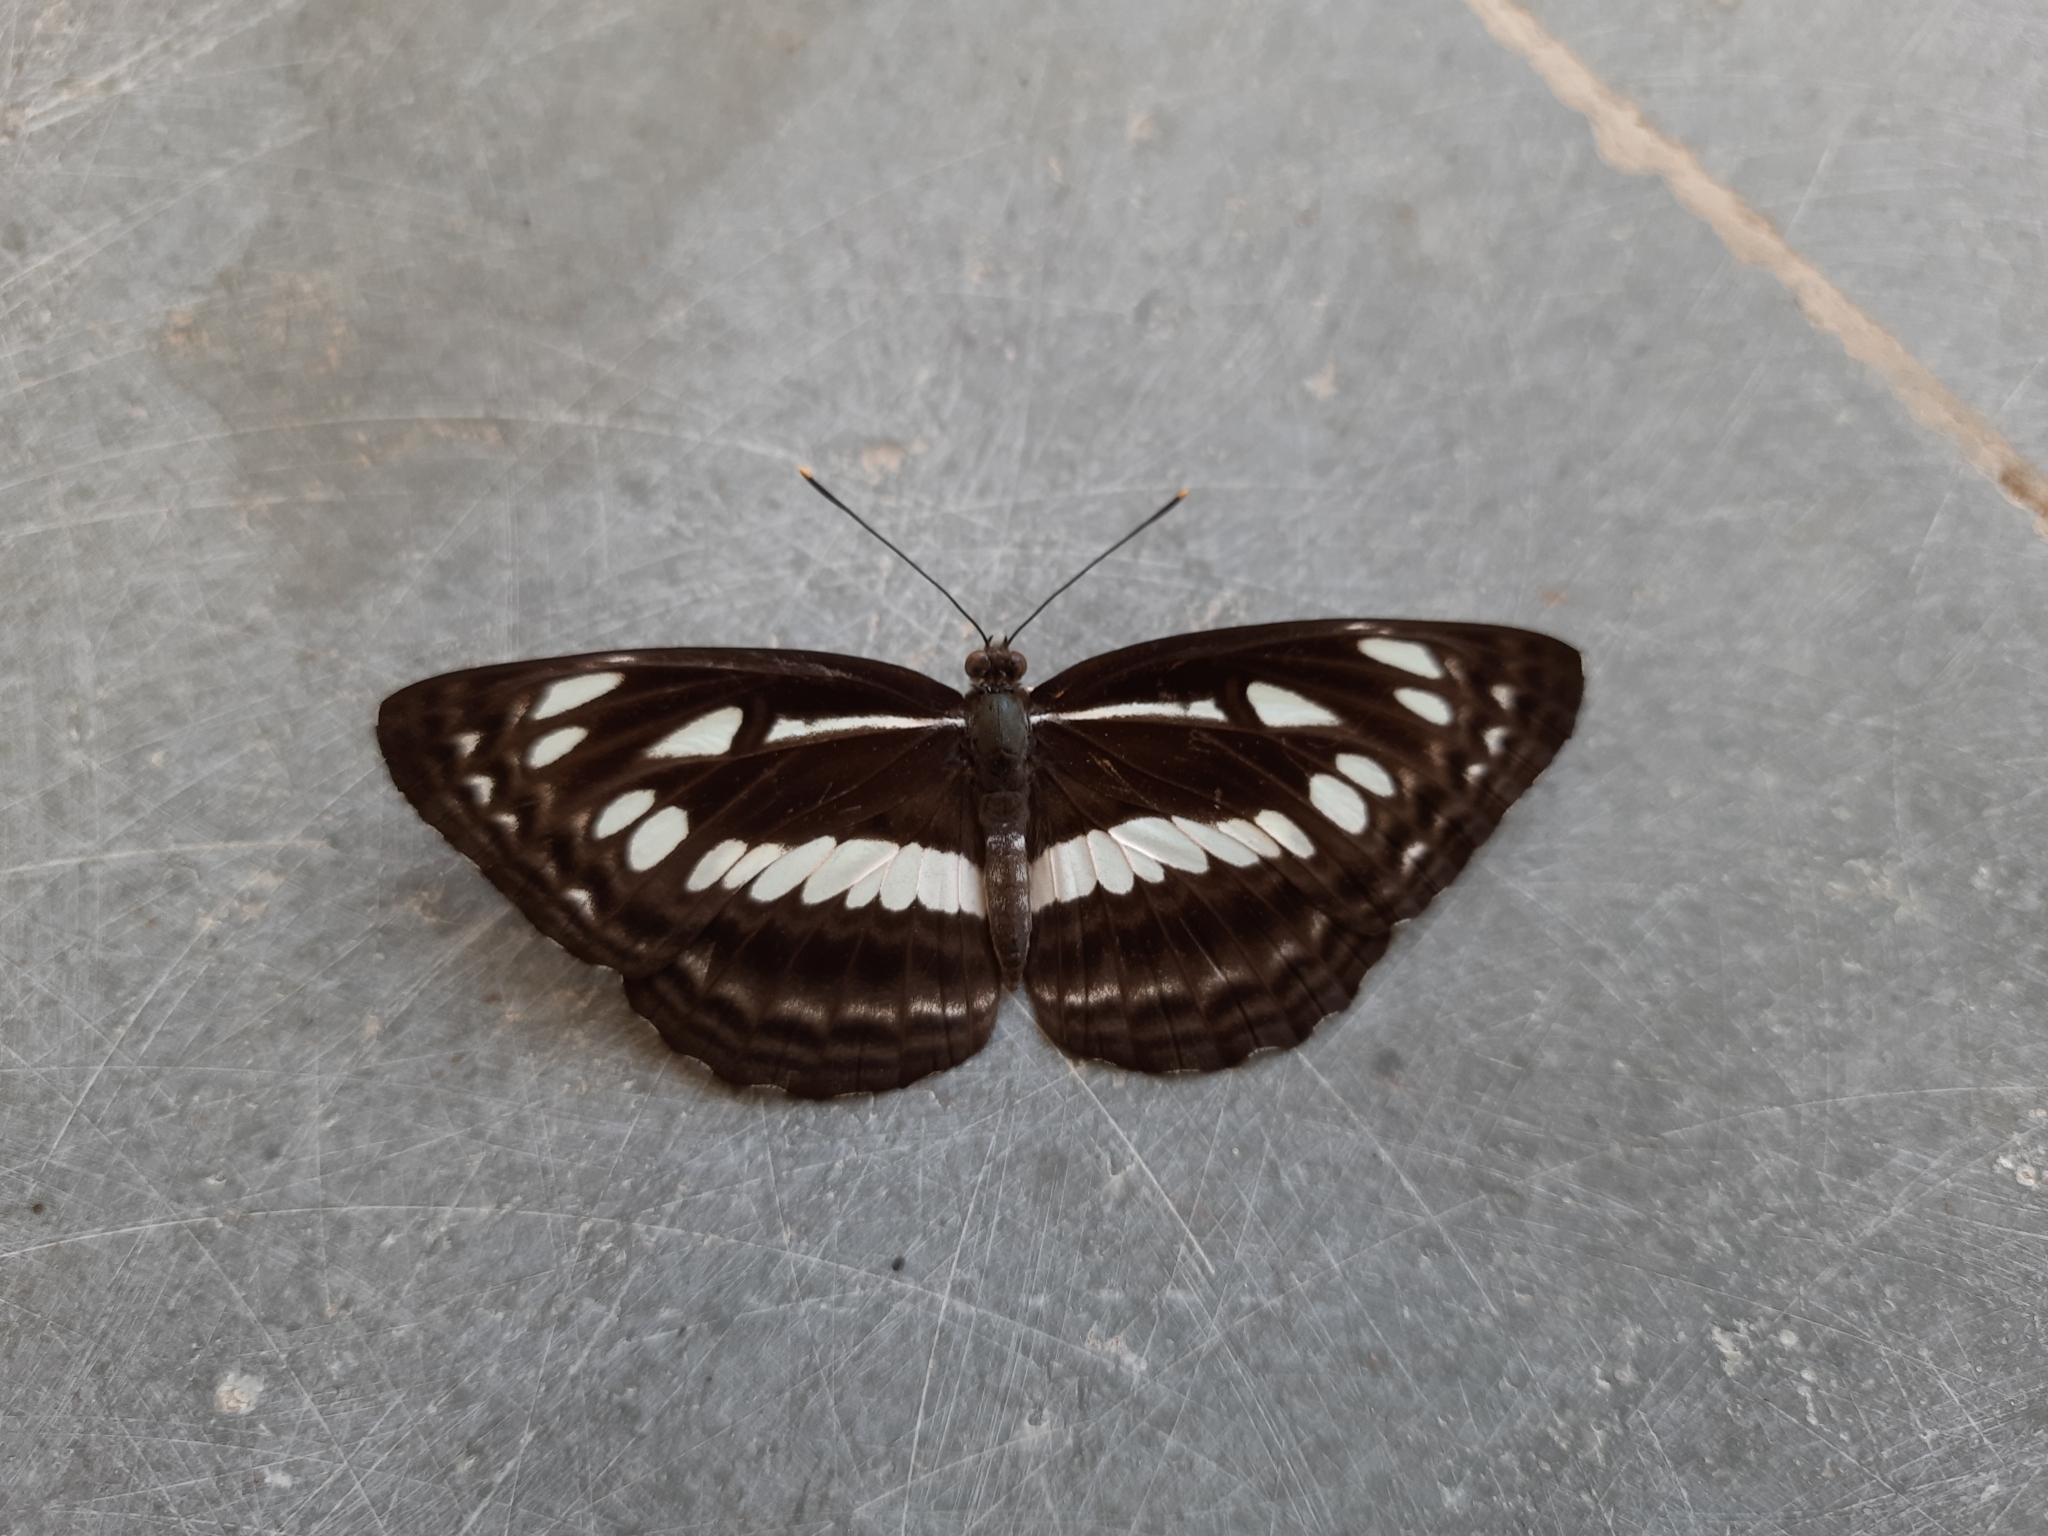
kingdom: Animalia
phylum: Arthropoda
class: Insecta
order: Lepidoptera
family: Nymphalidae
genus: Neptis
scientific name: Neptis jumbah
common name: Chestnut-streaked sailer
